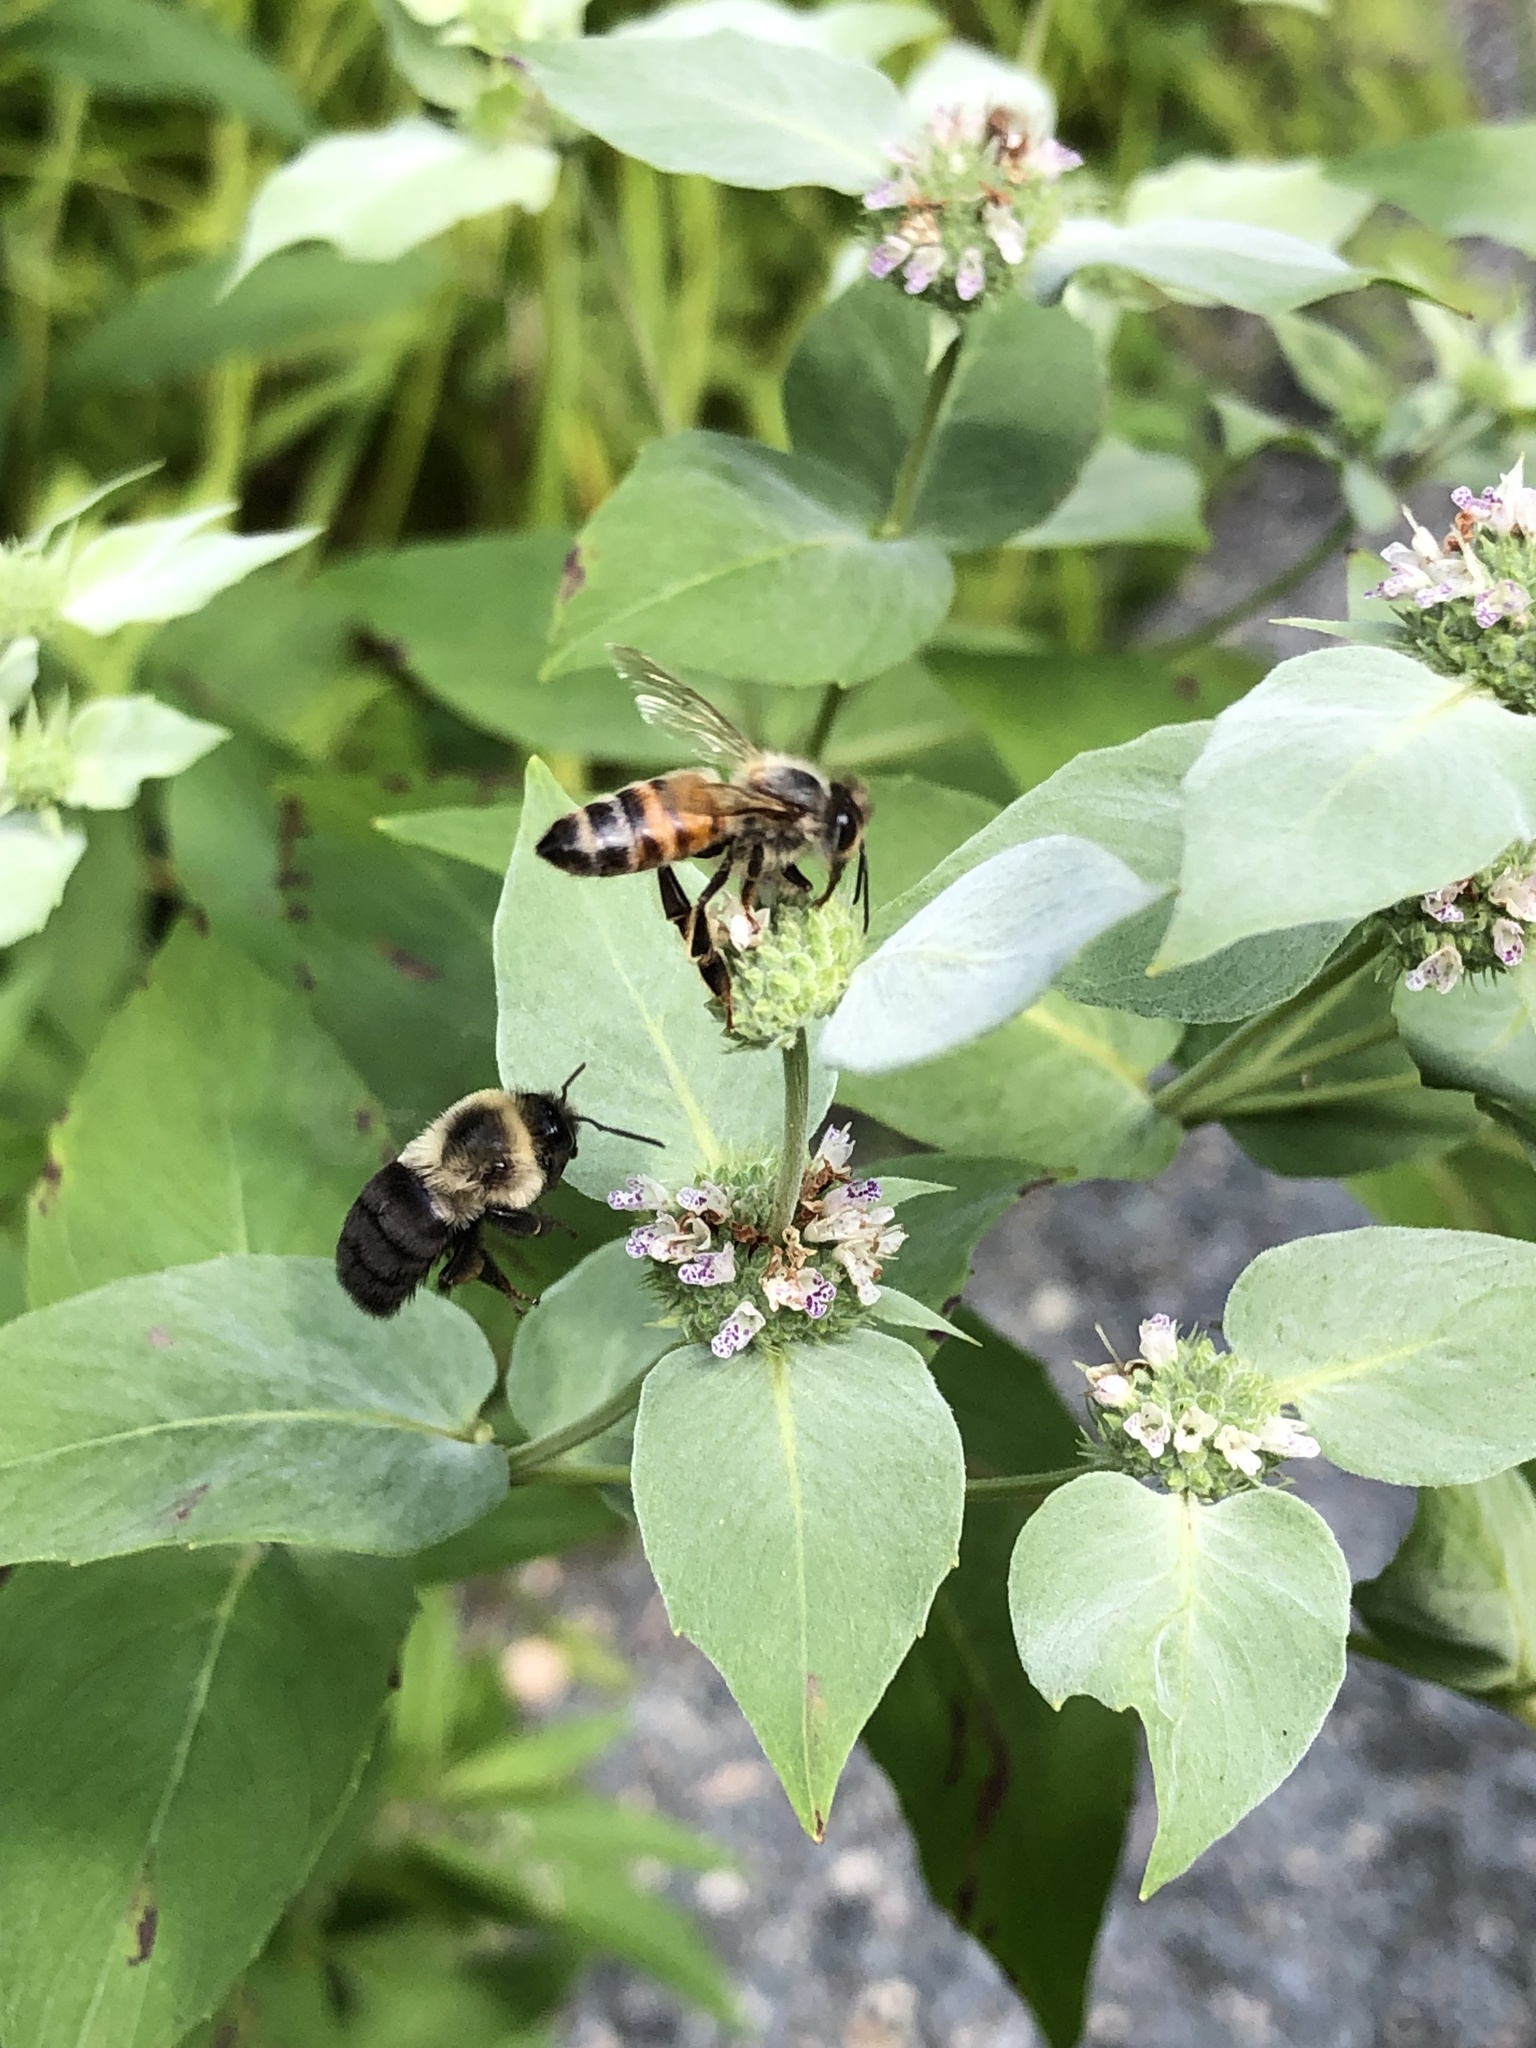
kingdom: Animalia
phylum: Arthropoda
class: Insecta
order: Hymenoptera
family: Apidae
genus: Apis
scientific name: Apis mellifera
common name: Honey bee
